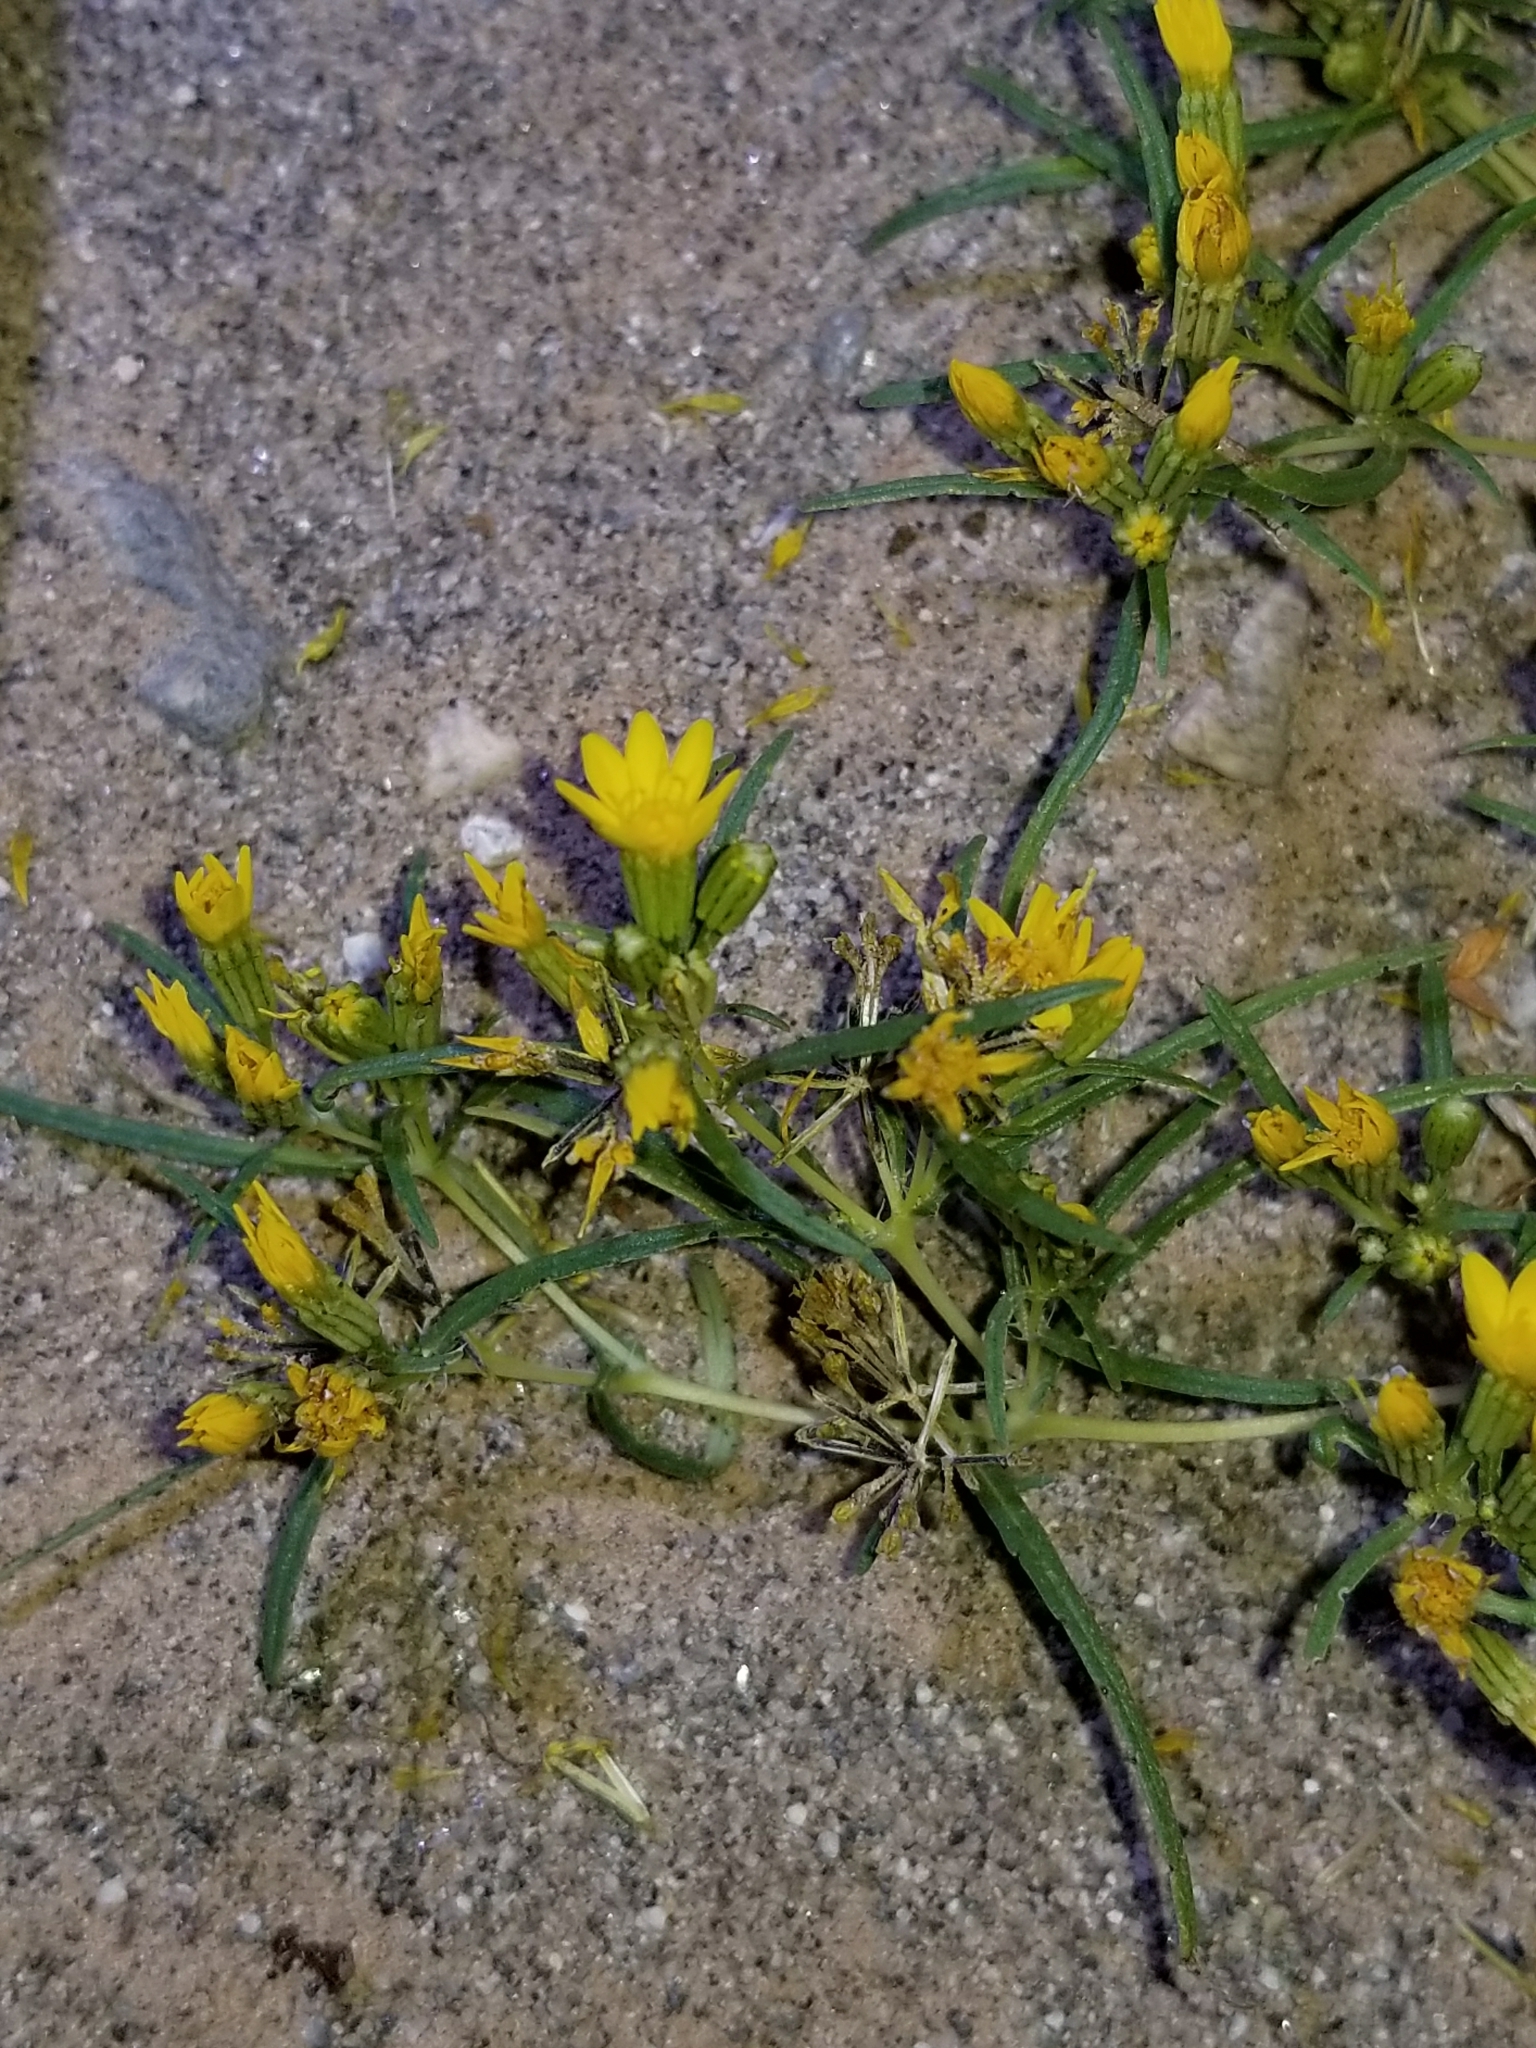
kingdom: Plantae
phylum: Tracheophyta
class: Magnoliopsida
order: Asterales
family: Asteraceae
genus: Pectis
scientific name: Pectis papposa
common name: Many-bristle chinchweed
